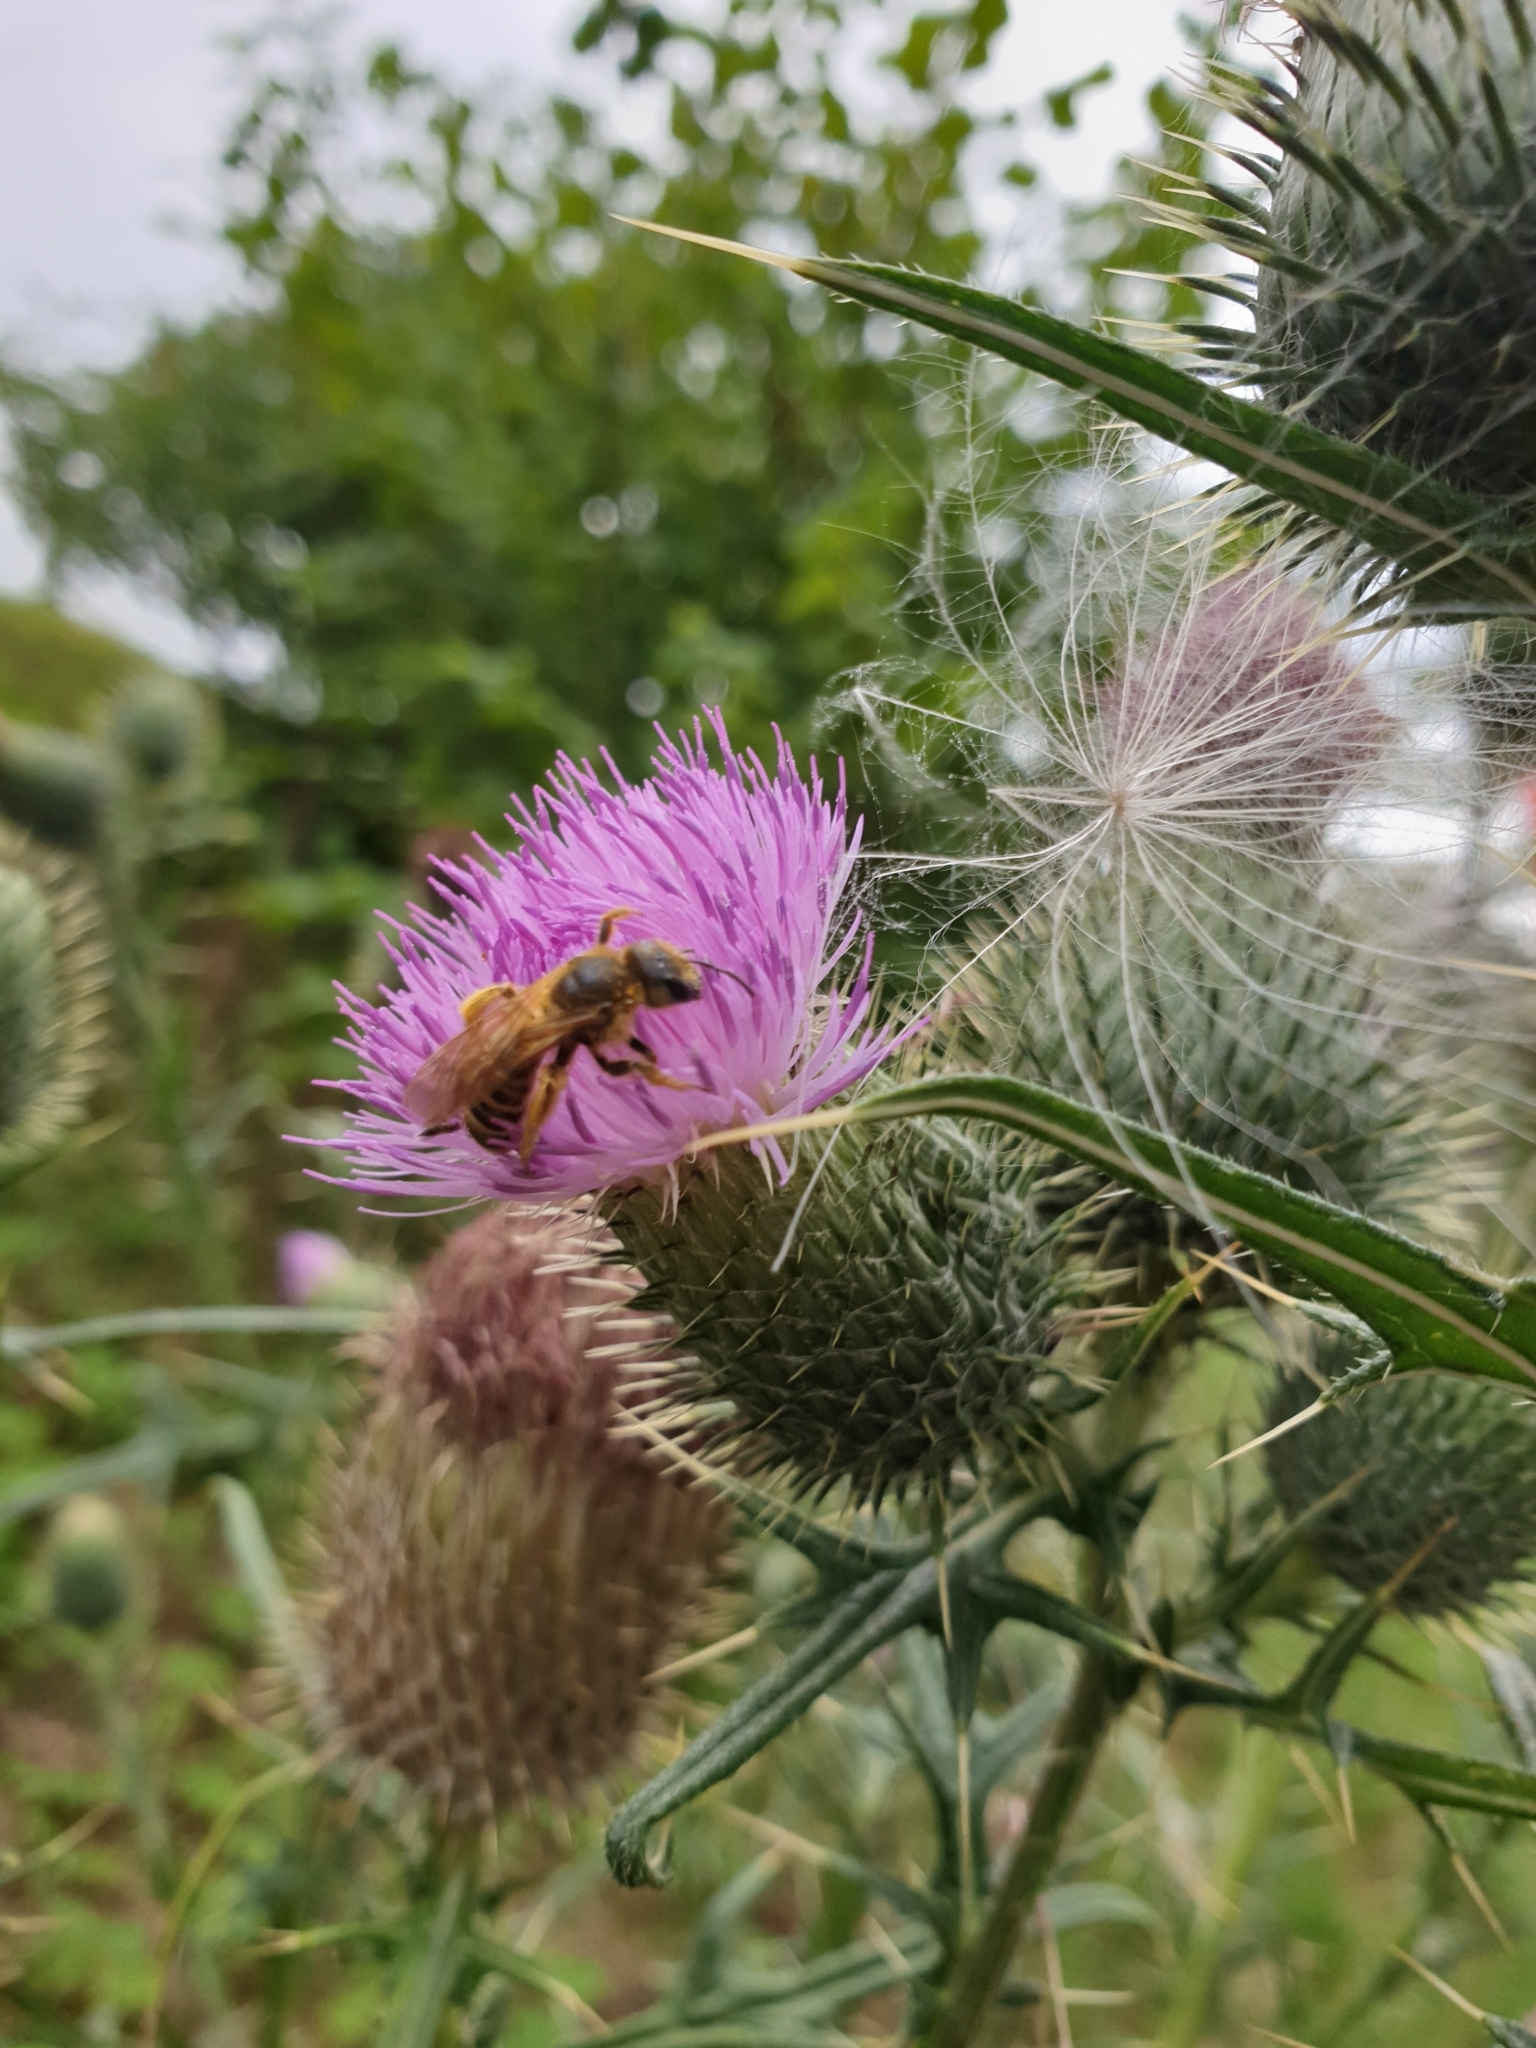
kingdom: Plantae
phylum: Tracheophyta
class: Magnoliopsida
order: Asterales
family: Asteraceae
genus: Cirsium
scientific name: Cirsium vulgare
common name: Bull thistle
